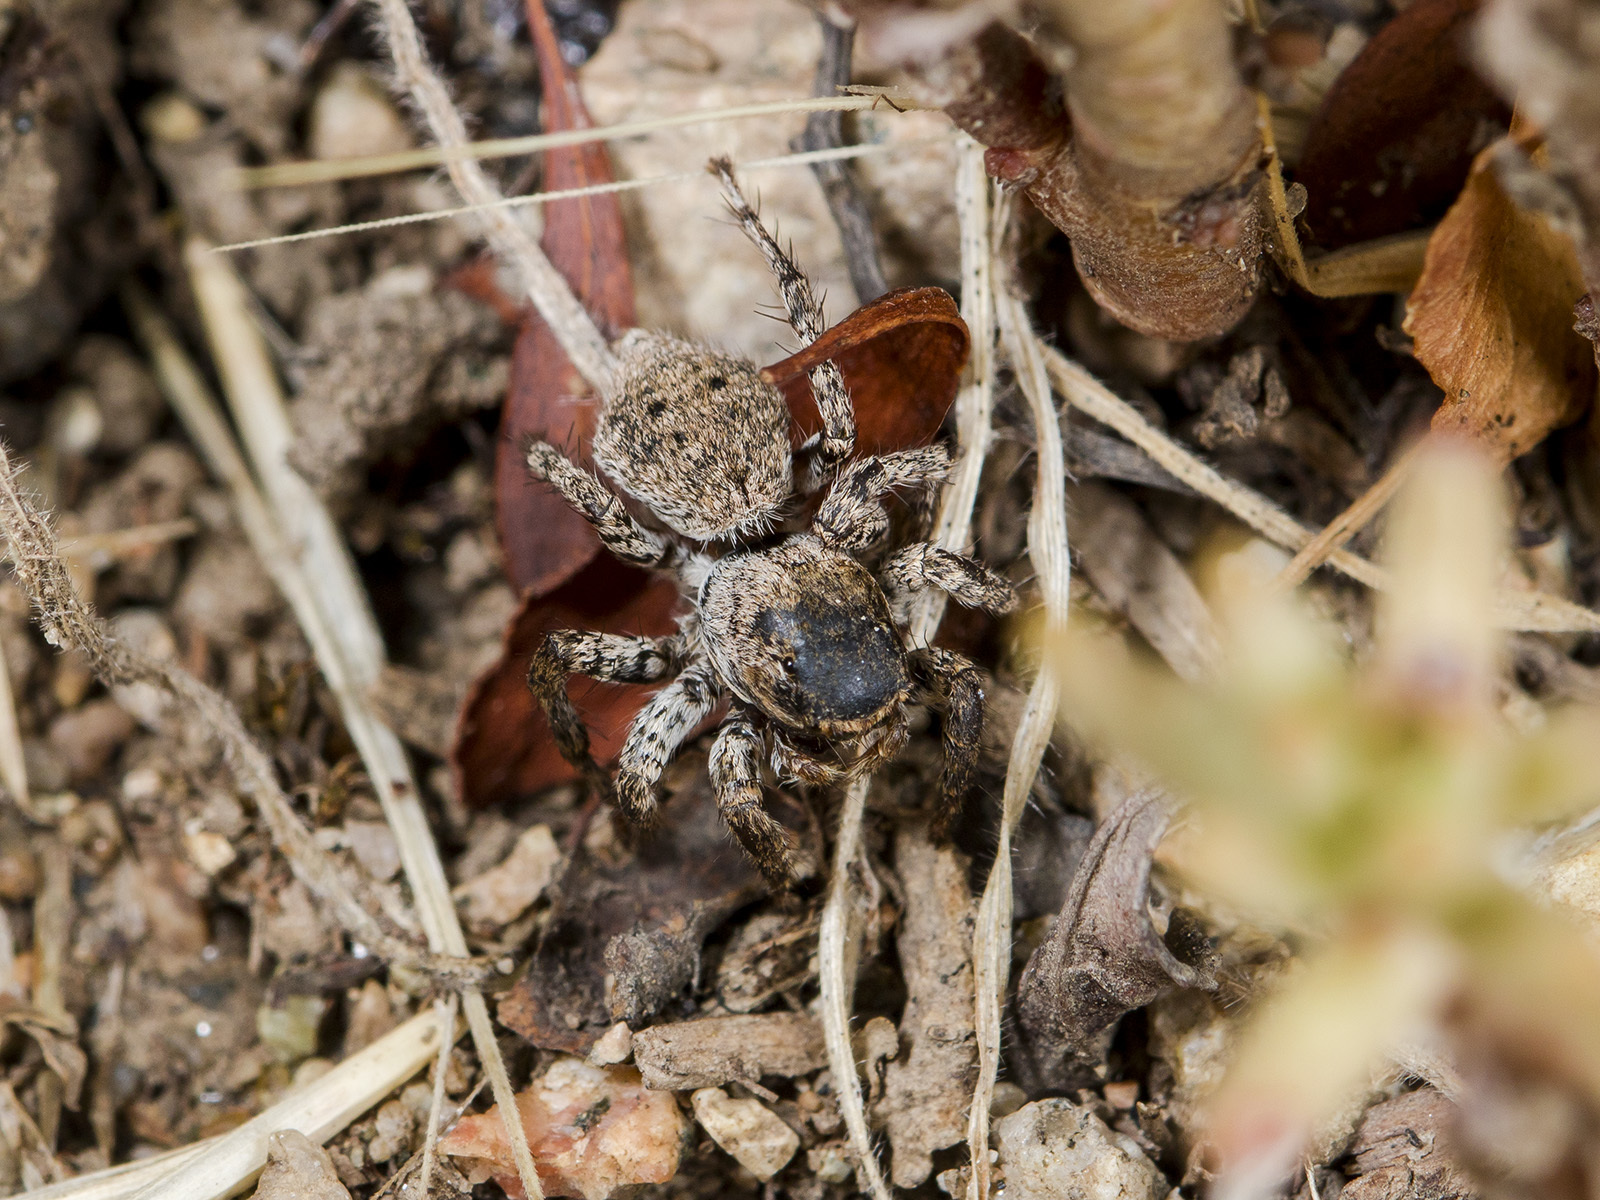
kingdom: Animalia
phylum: Arthropoda
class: Arachnida
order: Araneae
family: Salticidae
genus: Aelurillus
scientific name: Aelurillus v-insignitus
